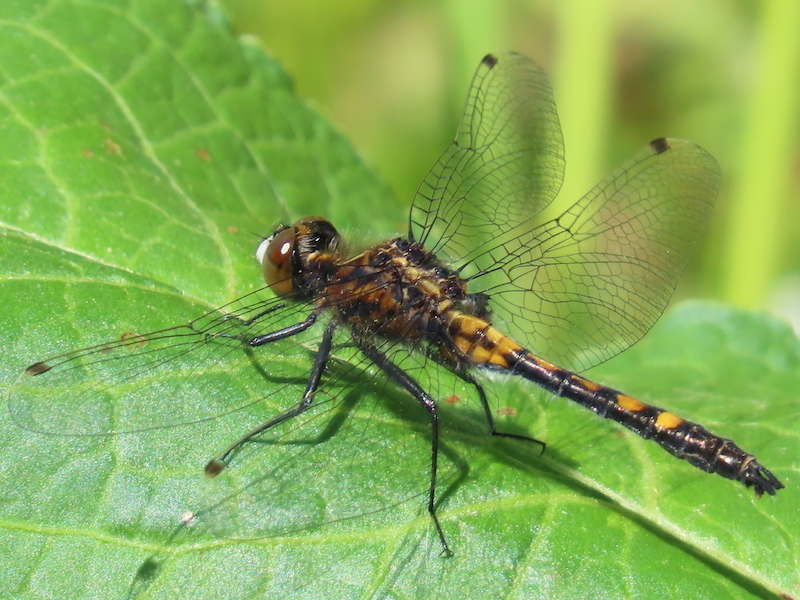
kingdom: Animalia
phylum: Arthropoda
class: Insecta
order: Odonata
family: Libellulidae
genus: Leucorrhinia
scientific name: Leucorrhinia intacta
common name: Dot-tailed whiteface
